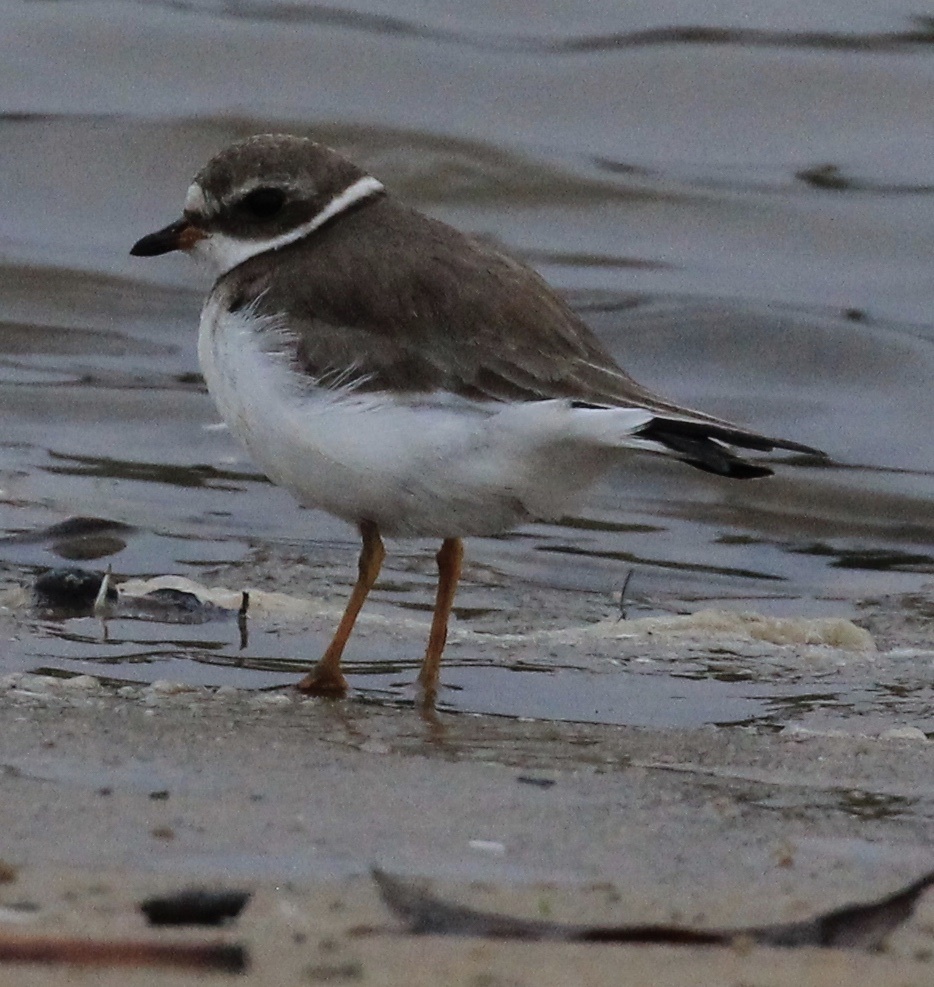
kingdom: Animalia
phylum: Chordata
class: Aves
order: Charadriiformes
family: Charadriidae
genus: Charadrius
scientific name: Charadrius semipalmatus
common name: Semipalmated plover
